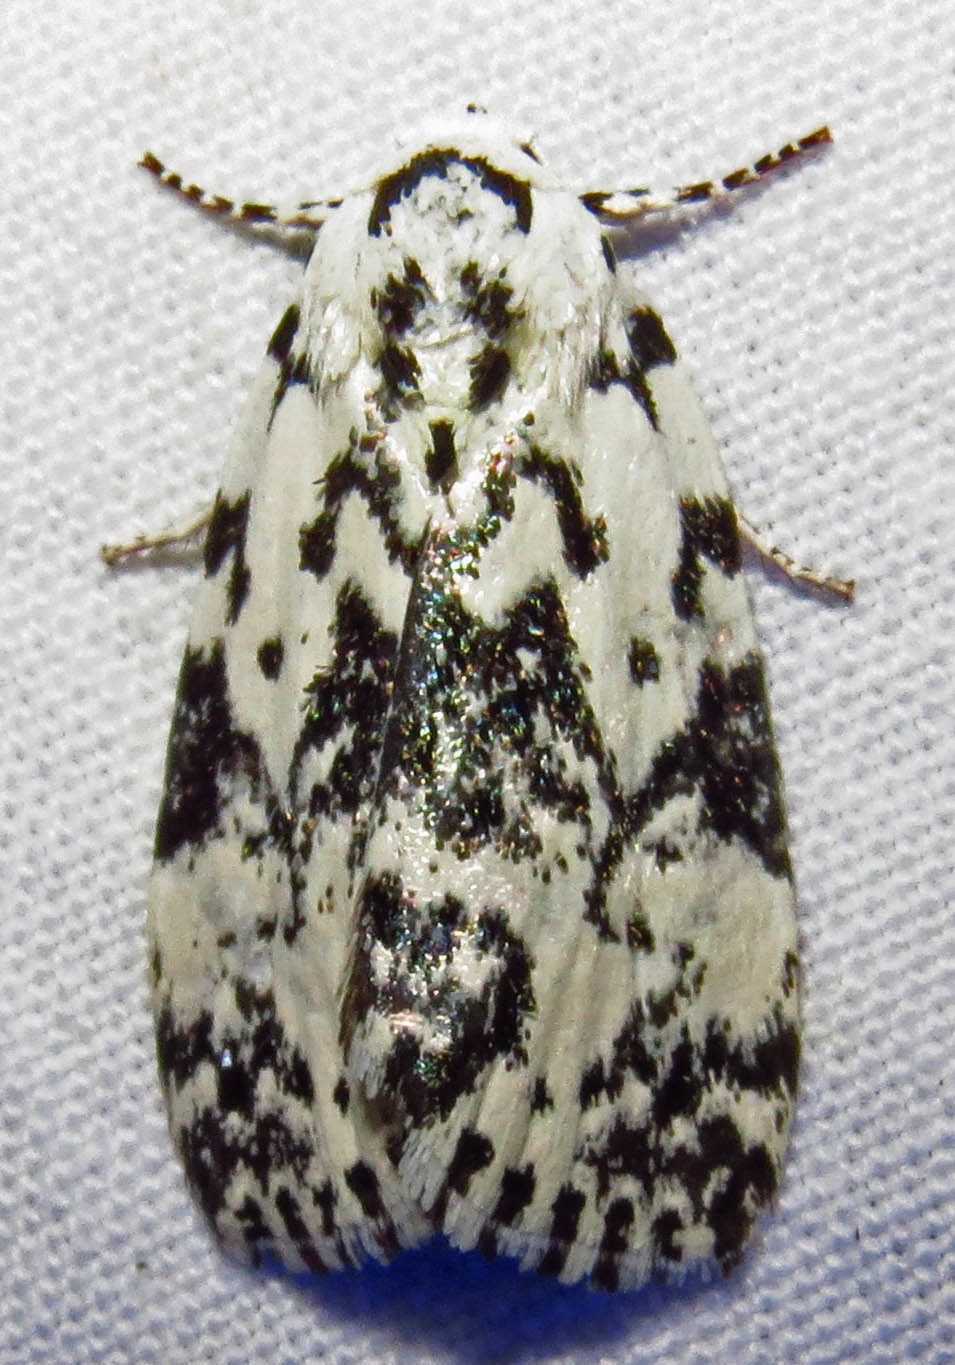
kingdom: Animalia
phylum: Arthropoda
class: Insecta
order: Lepidoptera
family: Noctuidae
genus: Polygrammate
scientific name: Polygrammate hebraeicum
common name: Hebrew moth
